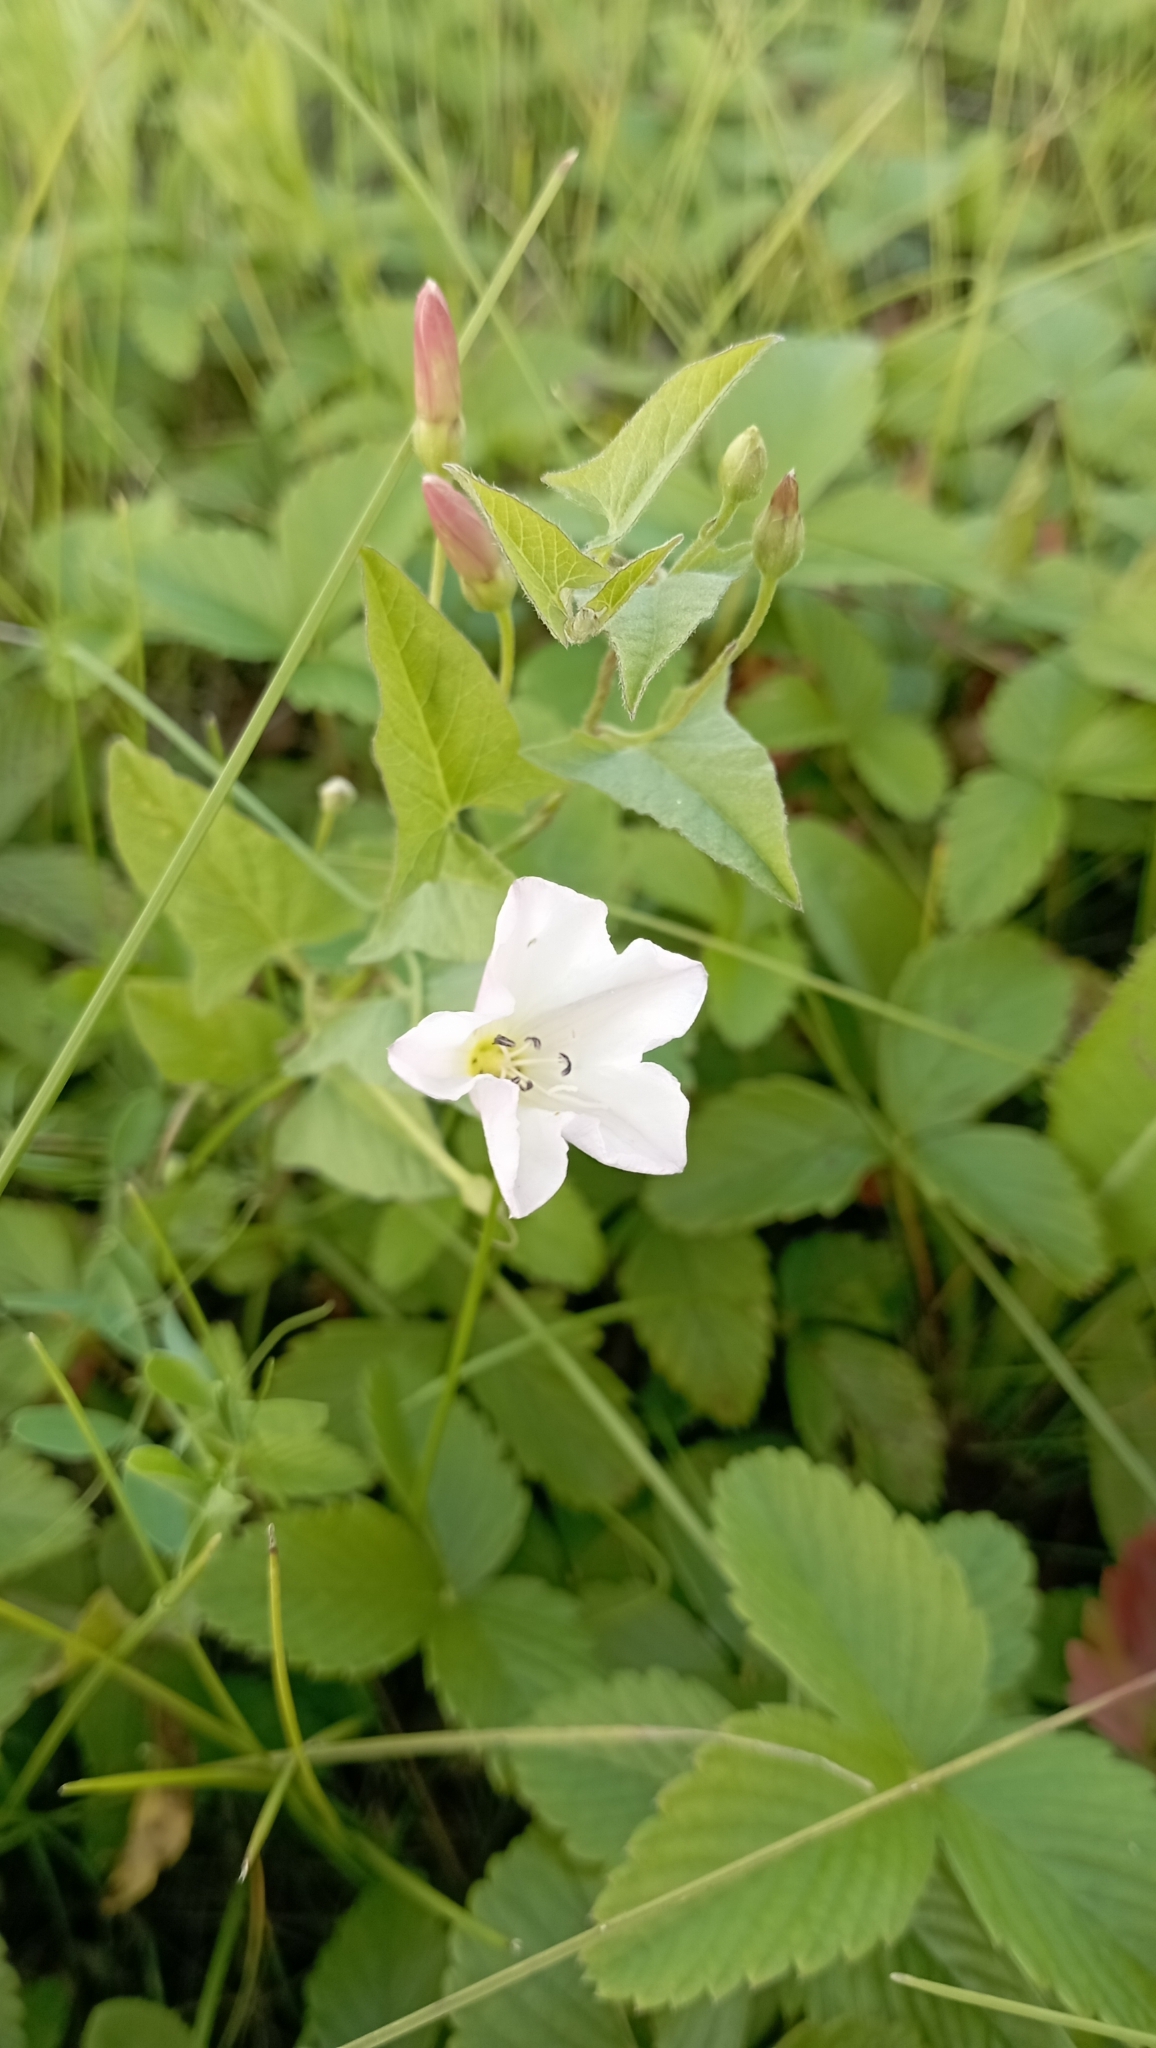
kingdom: Plantae
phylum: Tracheophyta
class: Magnoliopsida
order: Solanales
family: Convolvulaceae
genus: Convolvulus
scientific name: Convolvulus arvensis
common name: Field bindweed
